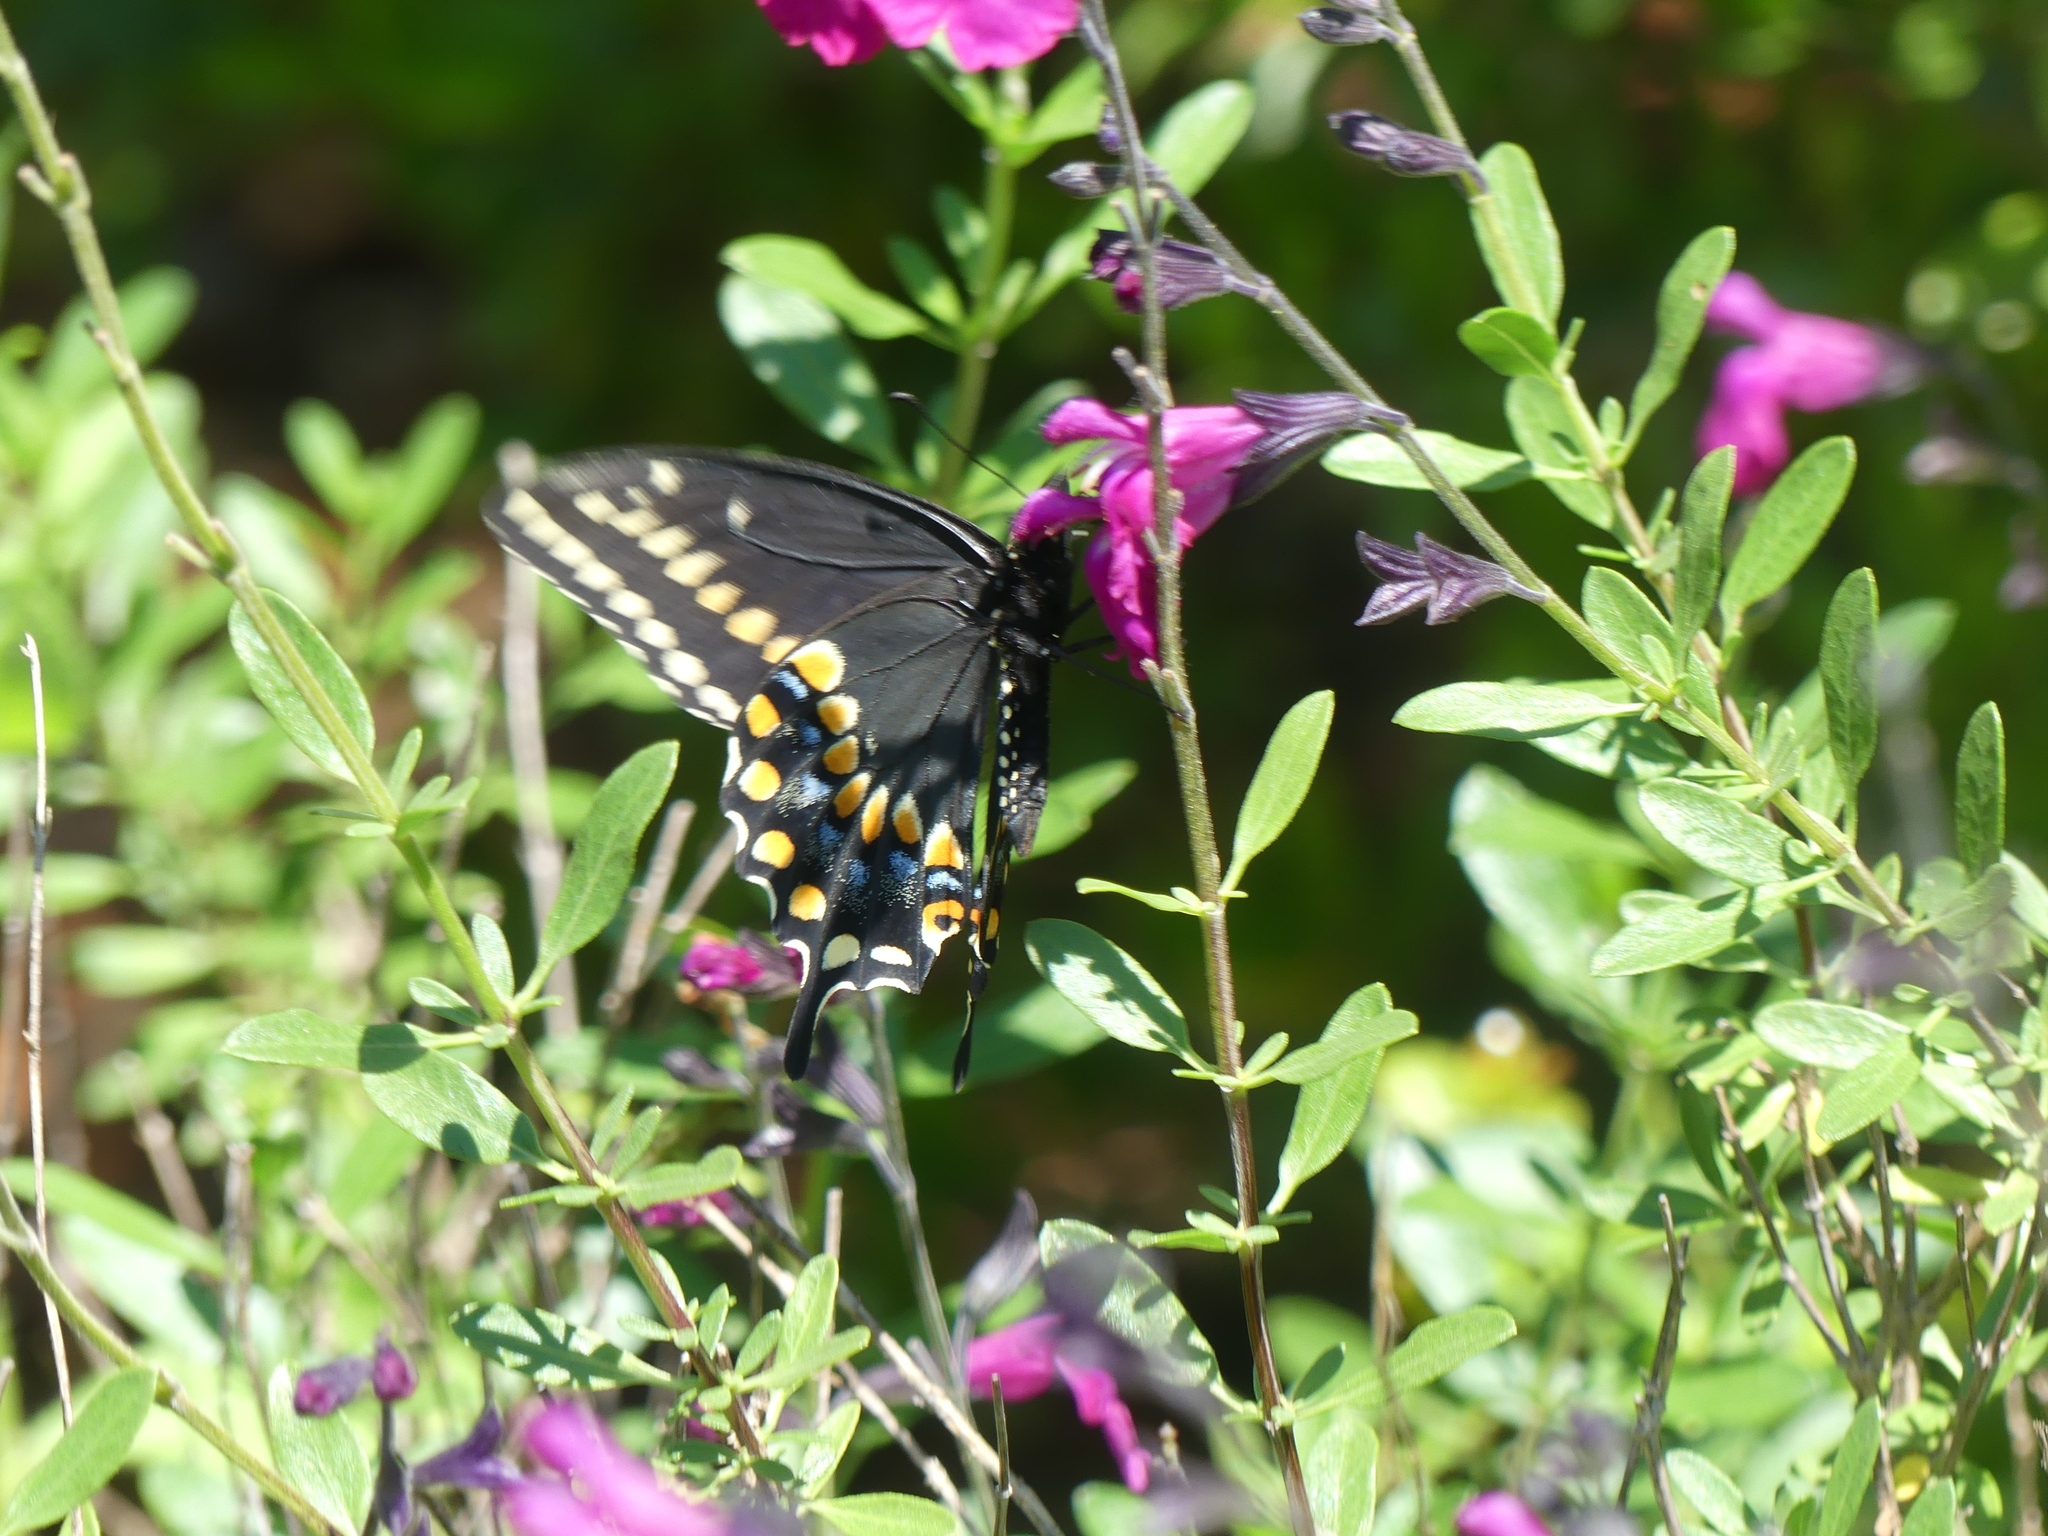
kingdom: Animalia
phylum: Arthropoda
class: Insecta
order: Lepidoptera
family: Papilionidae
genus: Papilio
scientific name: Papilio polyxenes
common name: Black swallowtail
